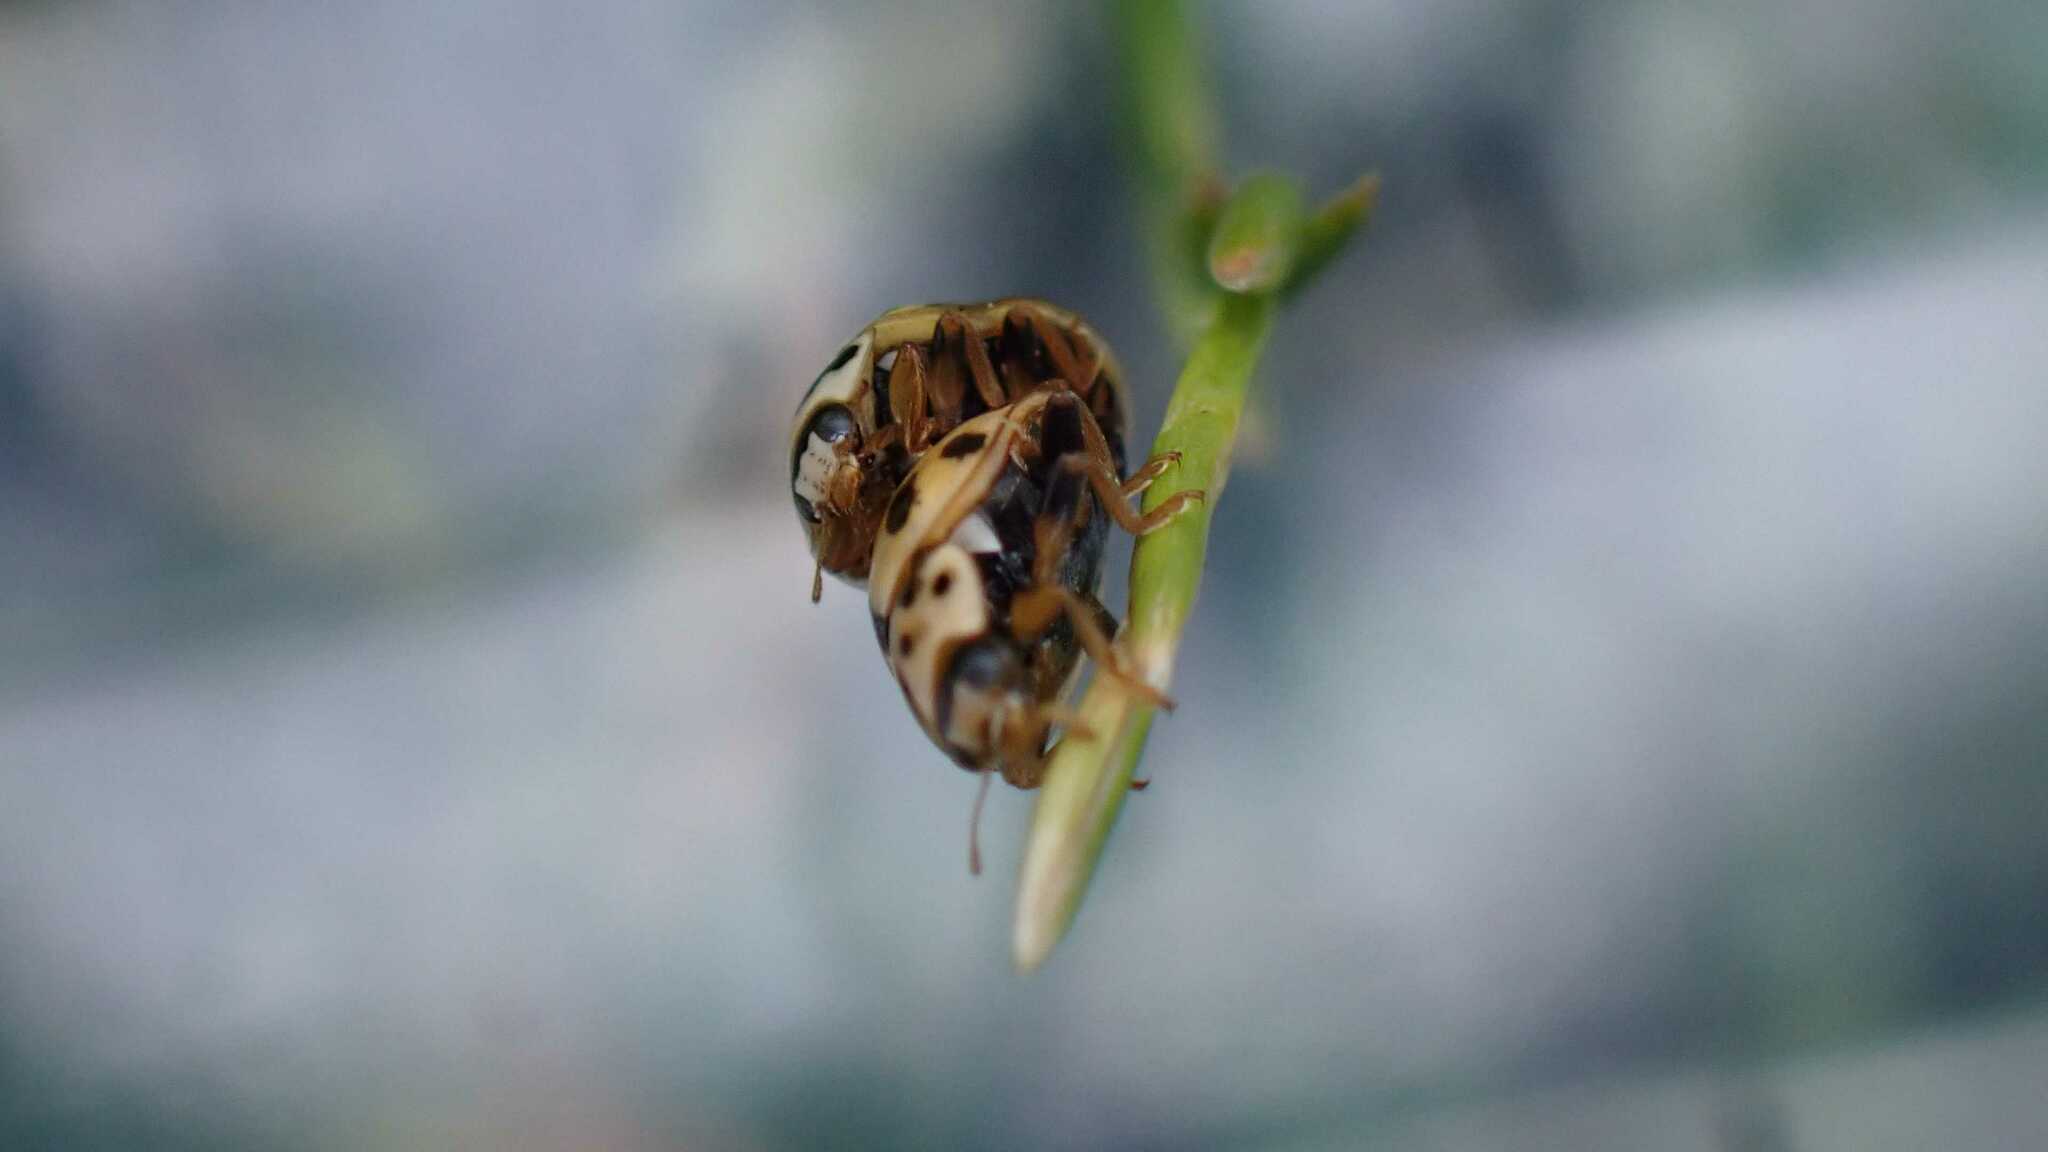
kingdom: Animalia
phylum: Arthropoda
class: Insecta
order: Coleoptera
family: Coccinellidae
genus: Propylaea
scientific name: Propylaea quatuordecimpunctata
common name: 14-spotted ladybird beetle
